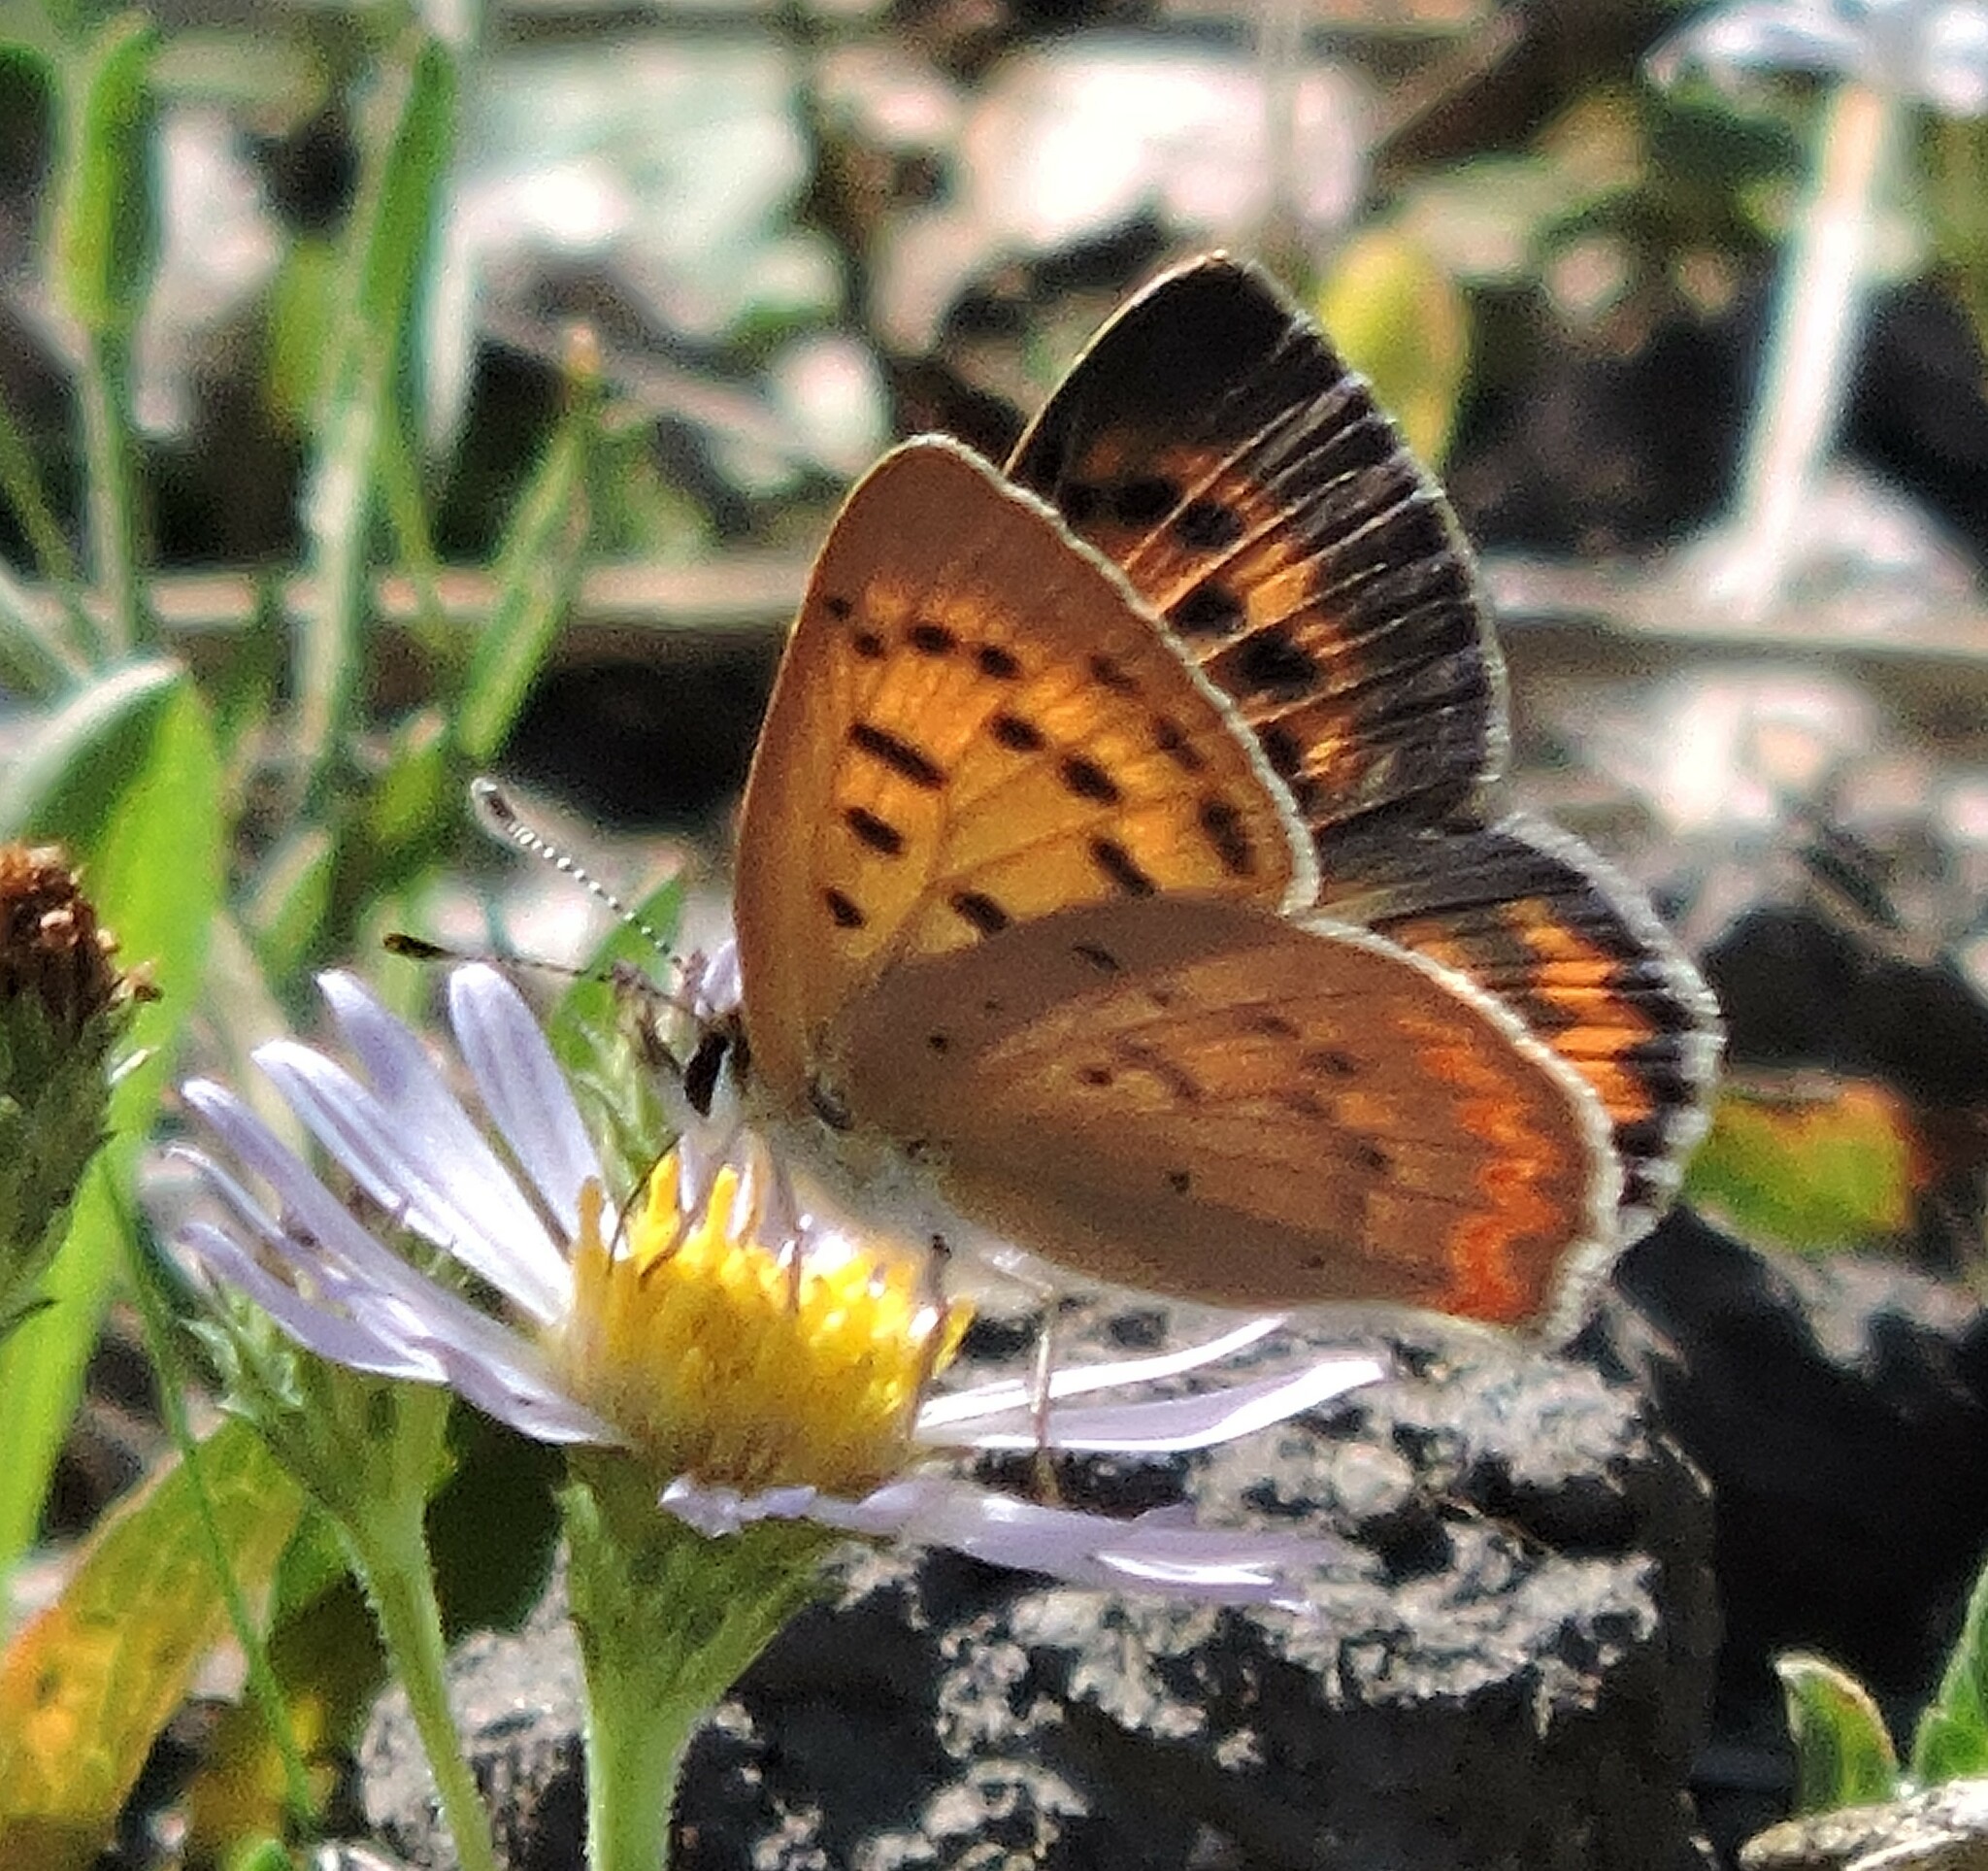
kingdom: Animalia
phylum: Arthropoda
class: Insecta
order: Lepidoptera
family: Lycaenidae
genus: Tharsalea
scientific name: Tharsalea helloides
